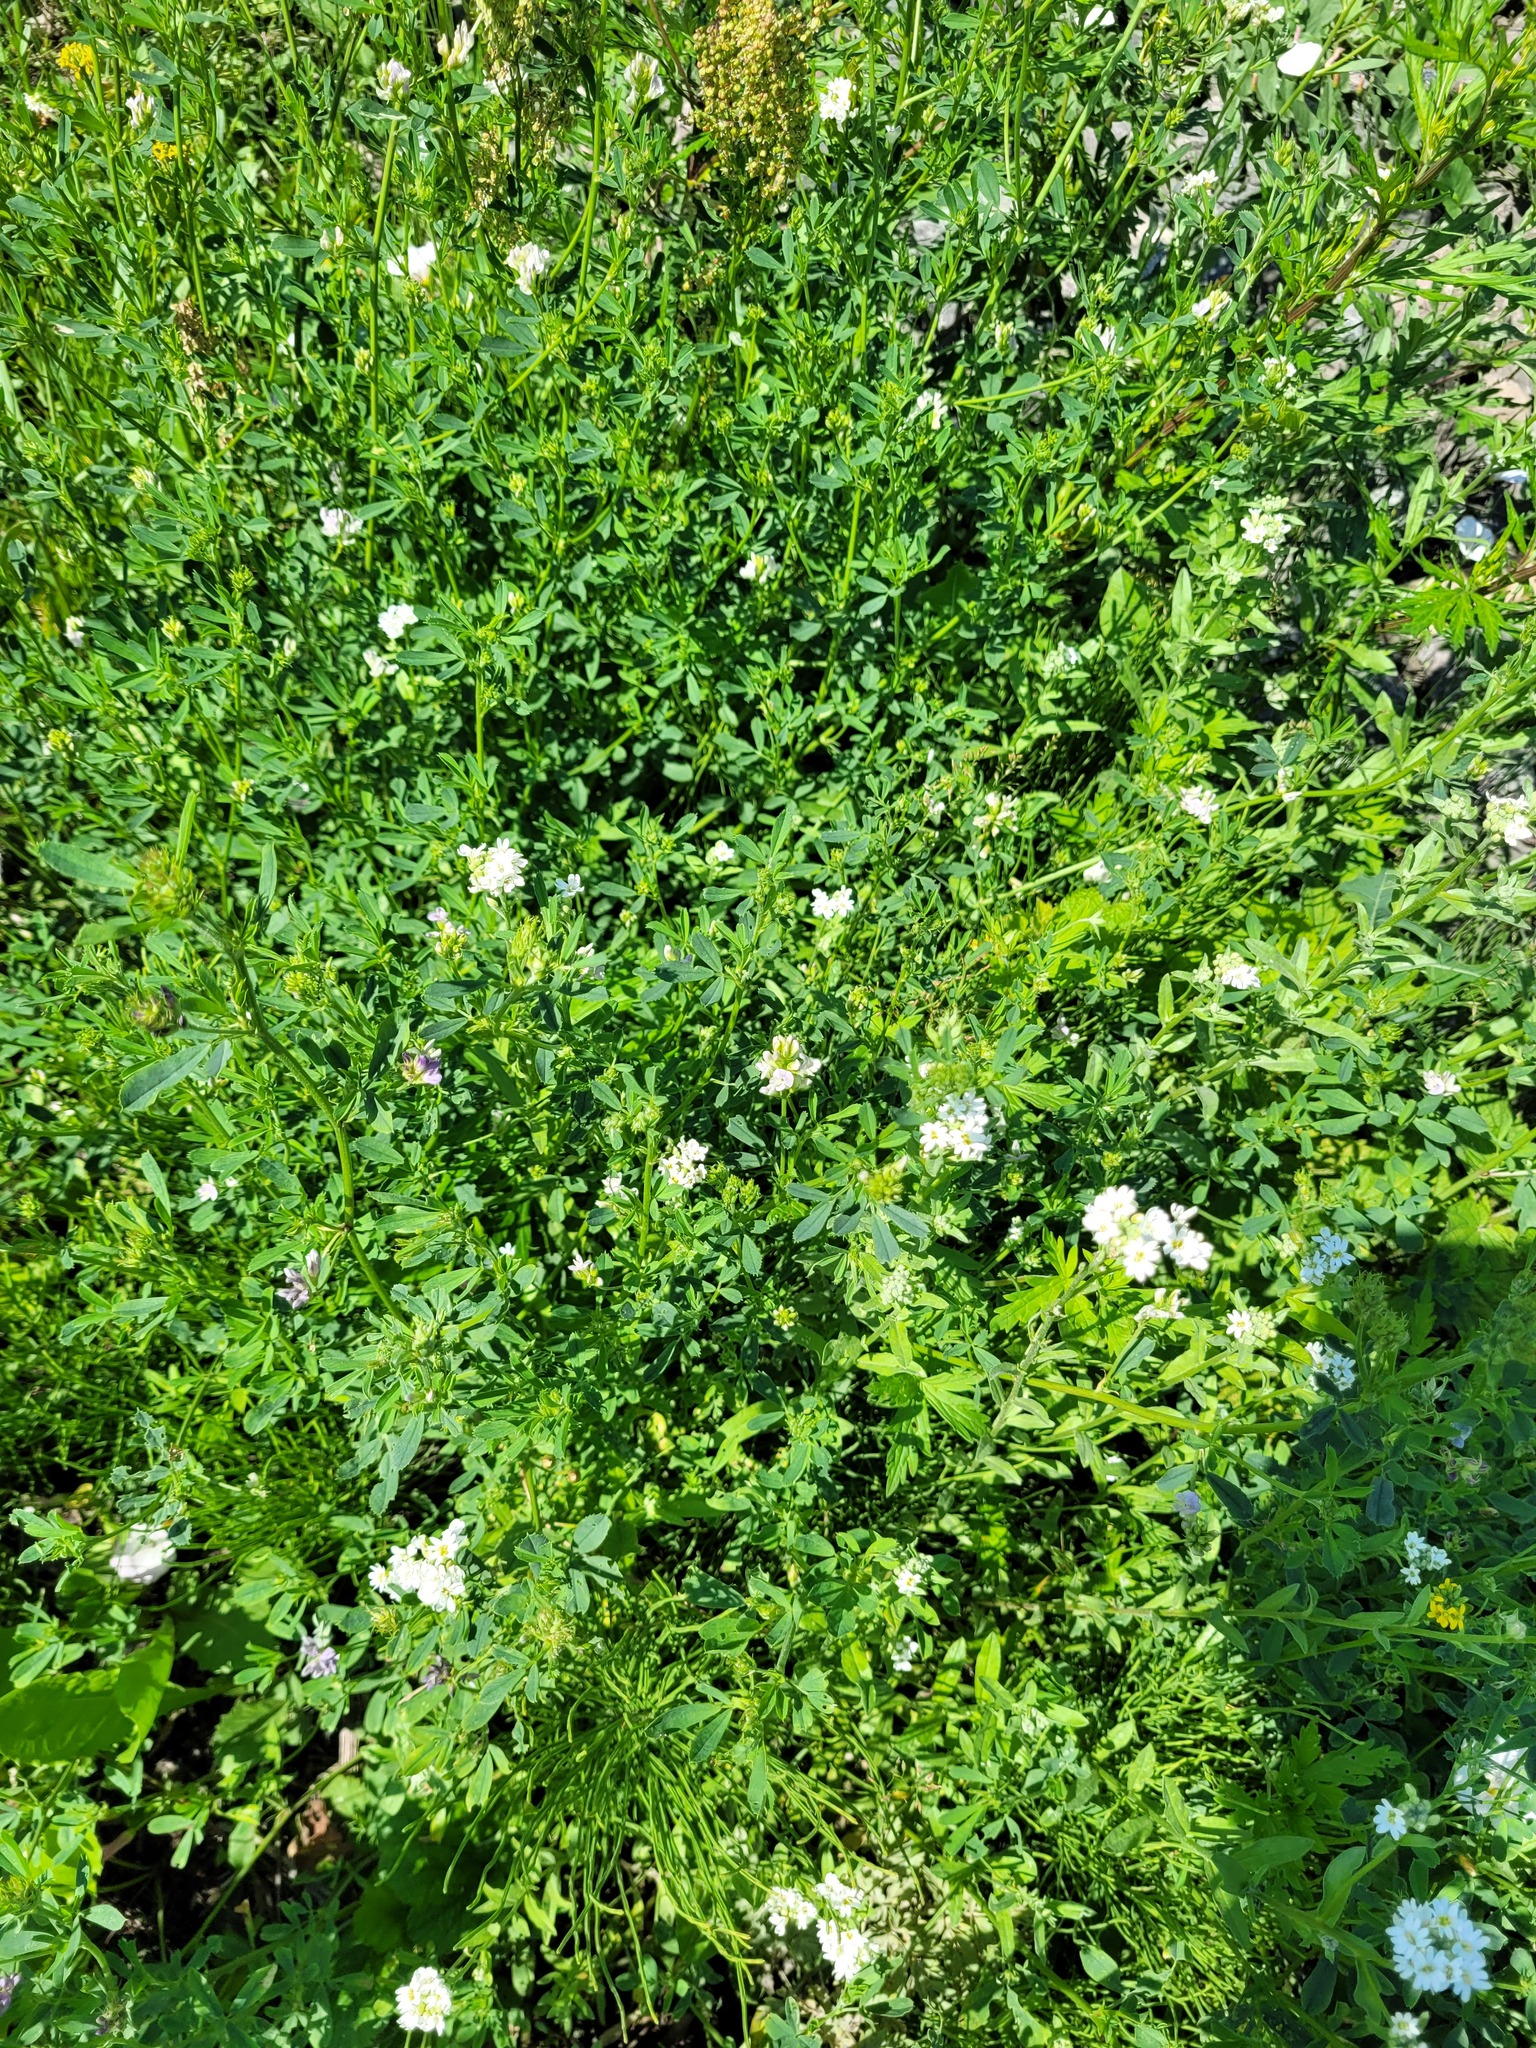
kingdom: Plantae
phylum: Tracheophyta
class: Magnoliopsida
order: Fabales
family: Fabaceae
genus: Medicago
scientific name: Medicago varia
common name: Sand lucerne
